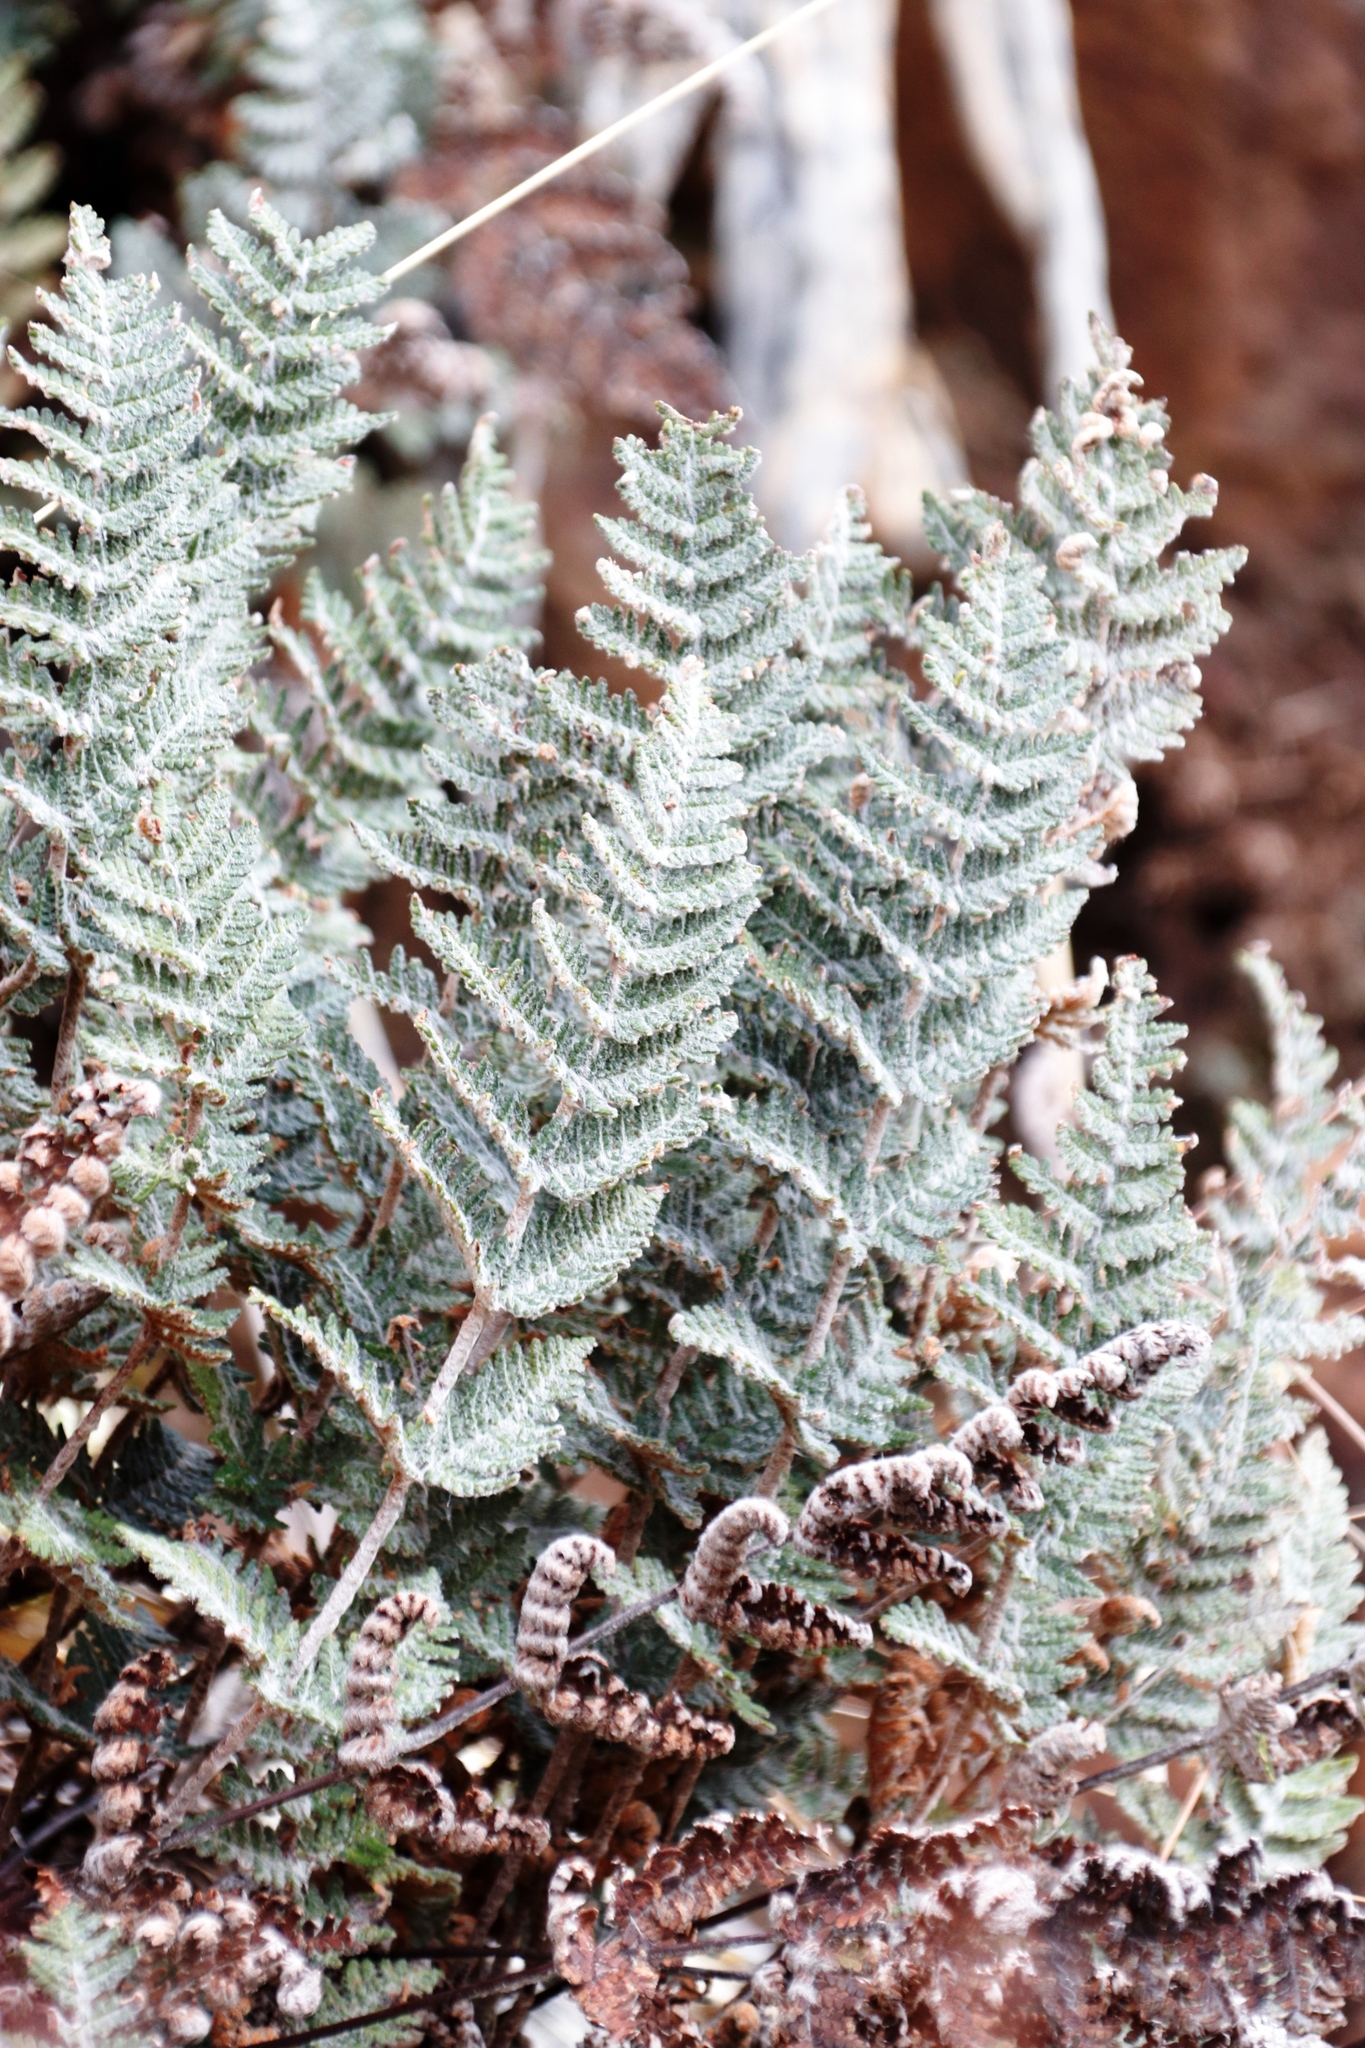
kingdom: Plantae
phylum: Tracheophyta
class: Polypodiopsida
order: Polypodiales
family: Pteridaceae
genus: Cheilanthes
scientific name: Cheilanthes eckloniana
